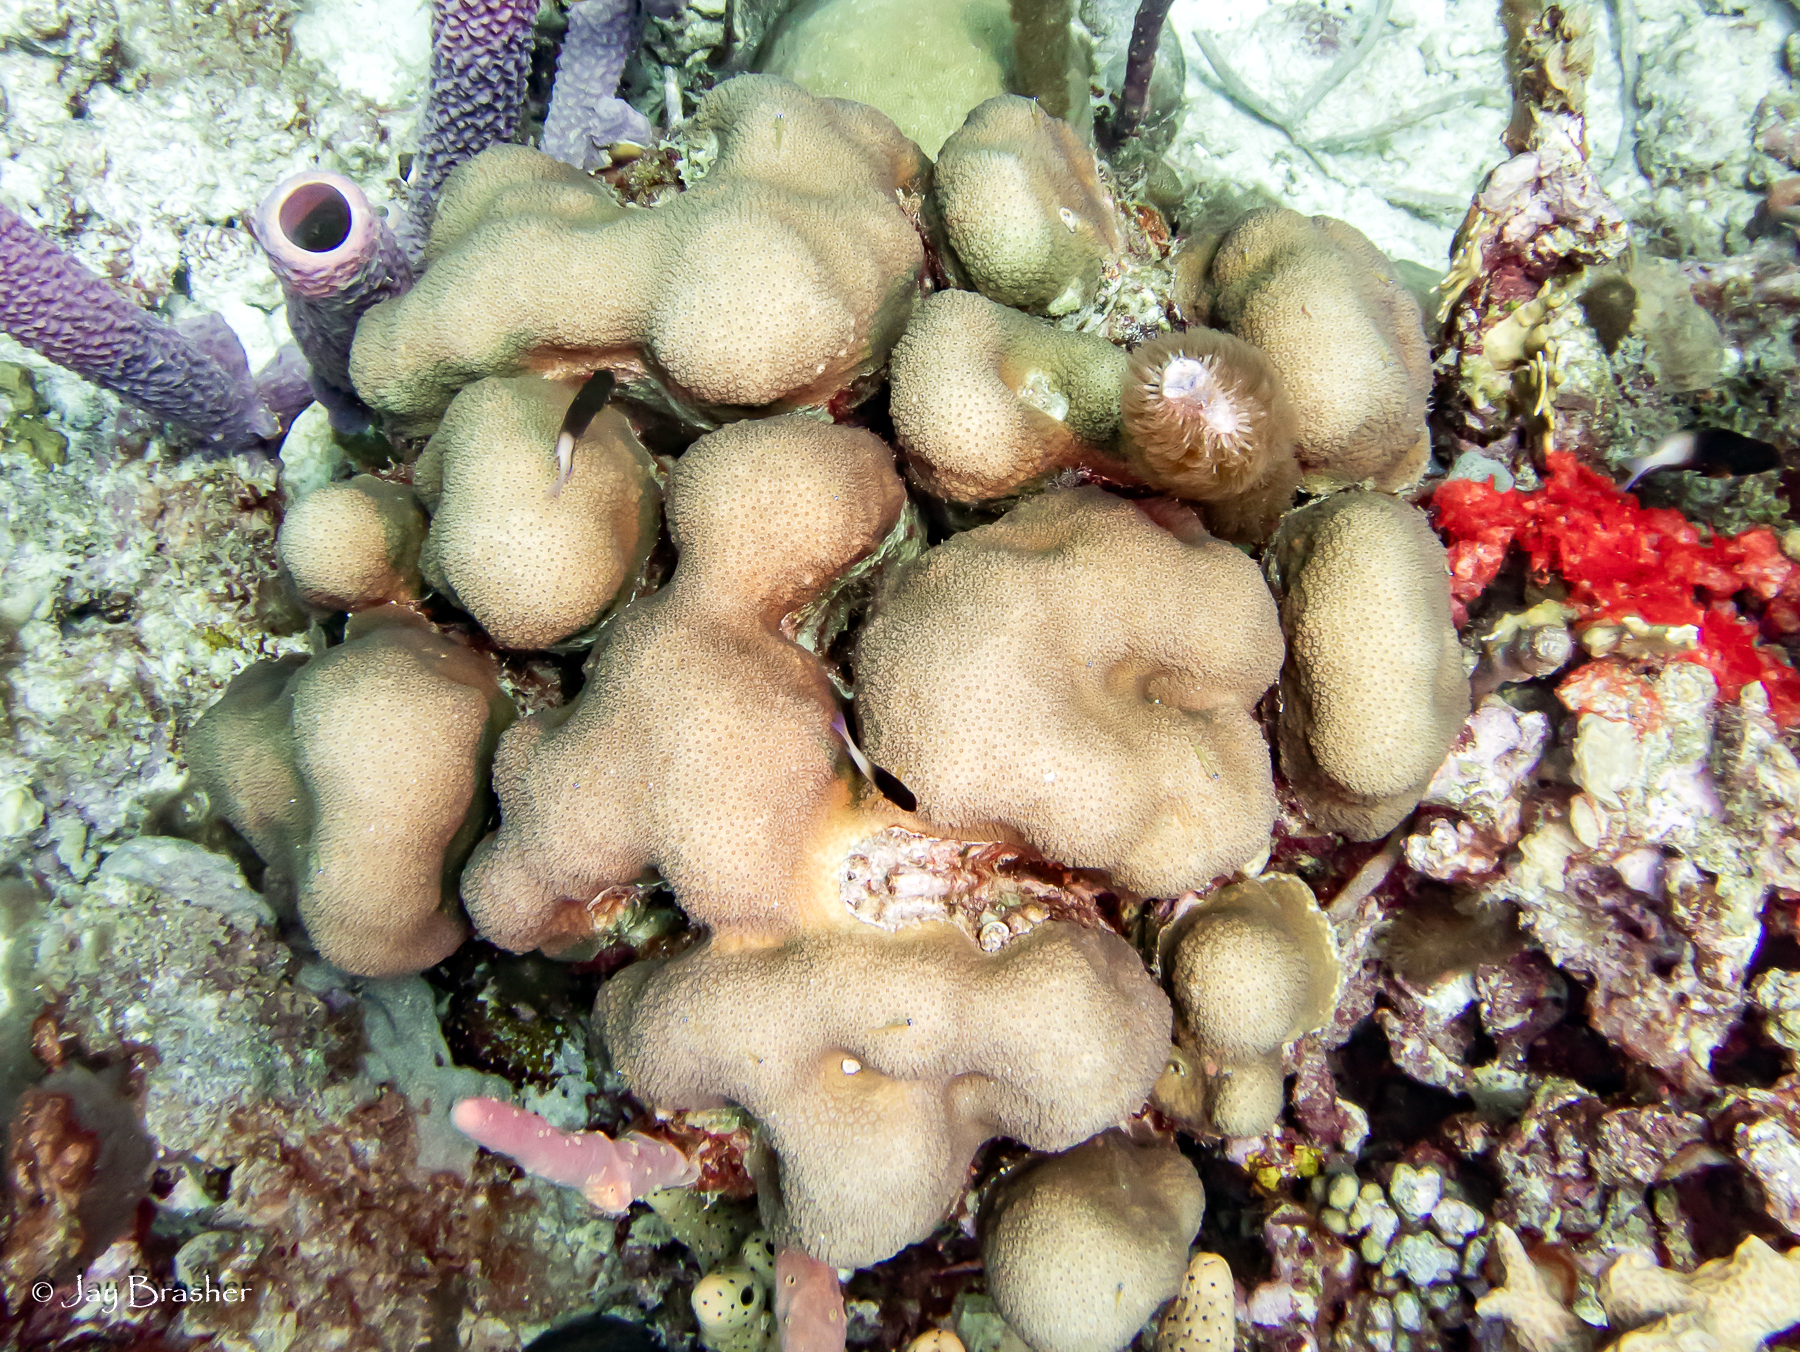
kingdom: Animalia
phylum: Cnidaria
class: Anthozoa
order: Scleractinia
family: Merulinidae
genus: Orbicella
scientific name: Orbicella annularis
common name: Boulder star coral
